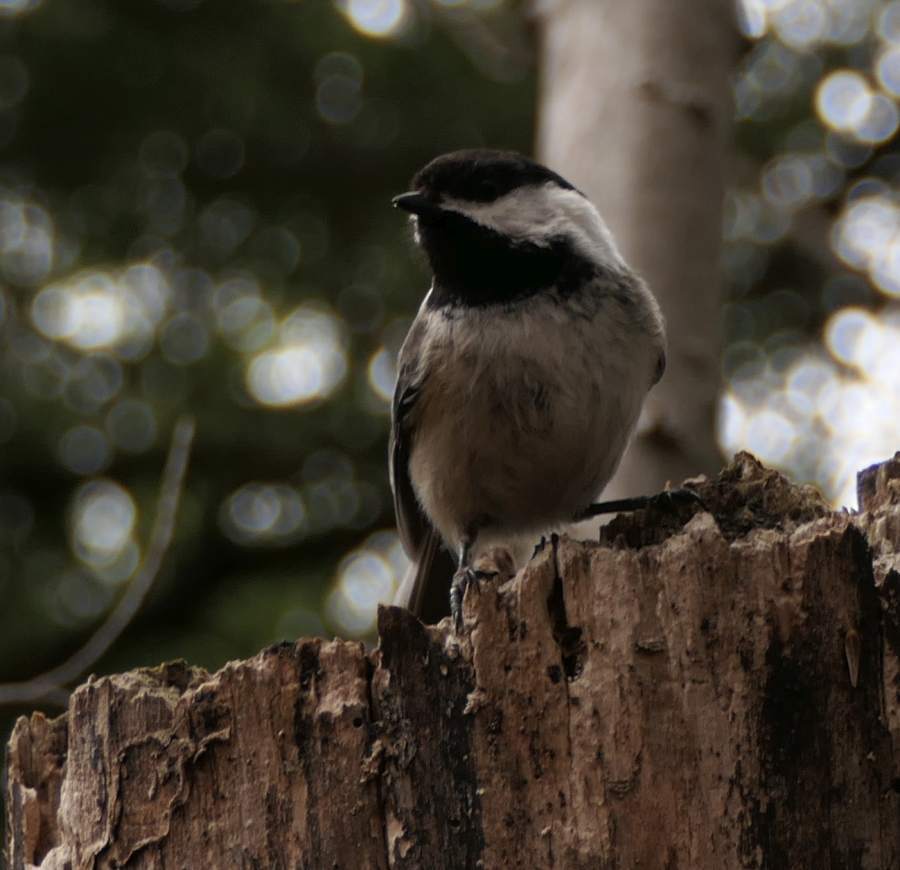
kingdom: Animalia
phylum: Chordata
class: Aves
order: Passeriformes
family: Paridae
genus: Poecile
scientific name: Poecile atricapillus
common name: Black-capped chickadee
